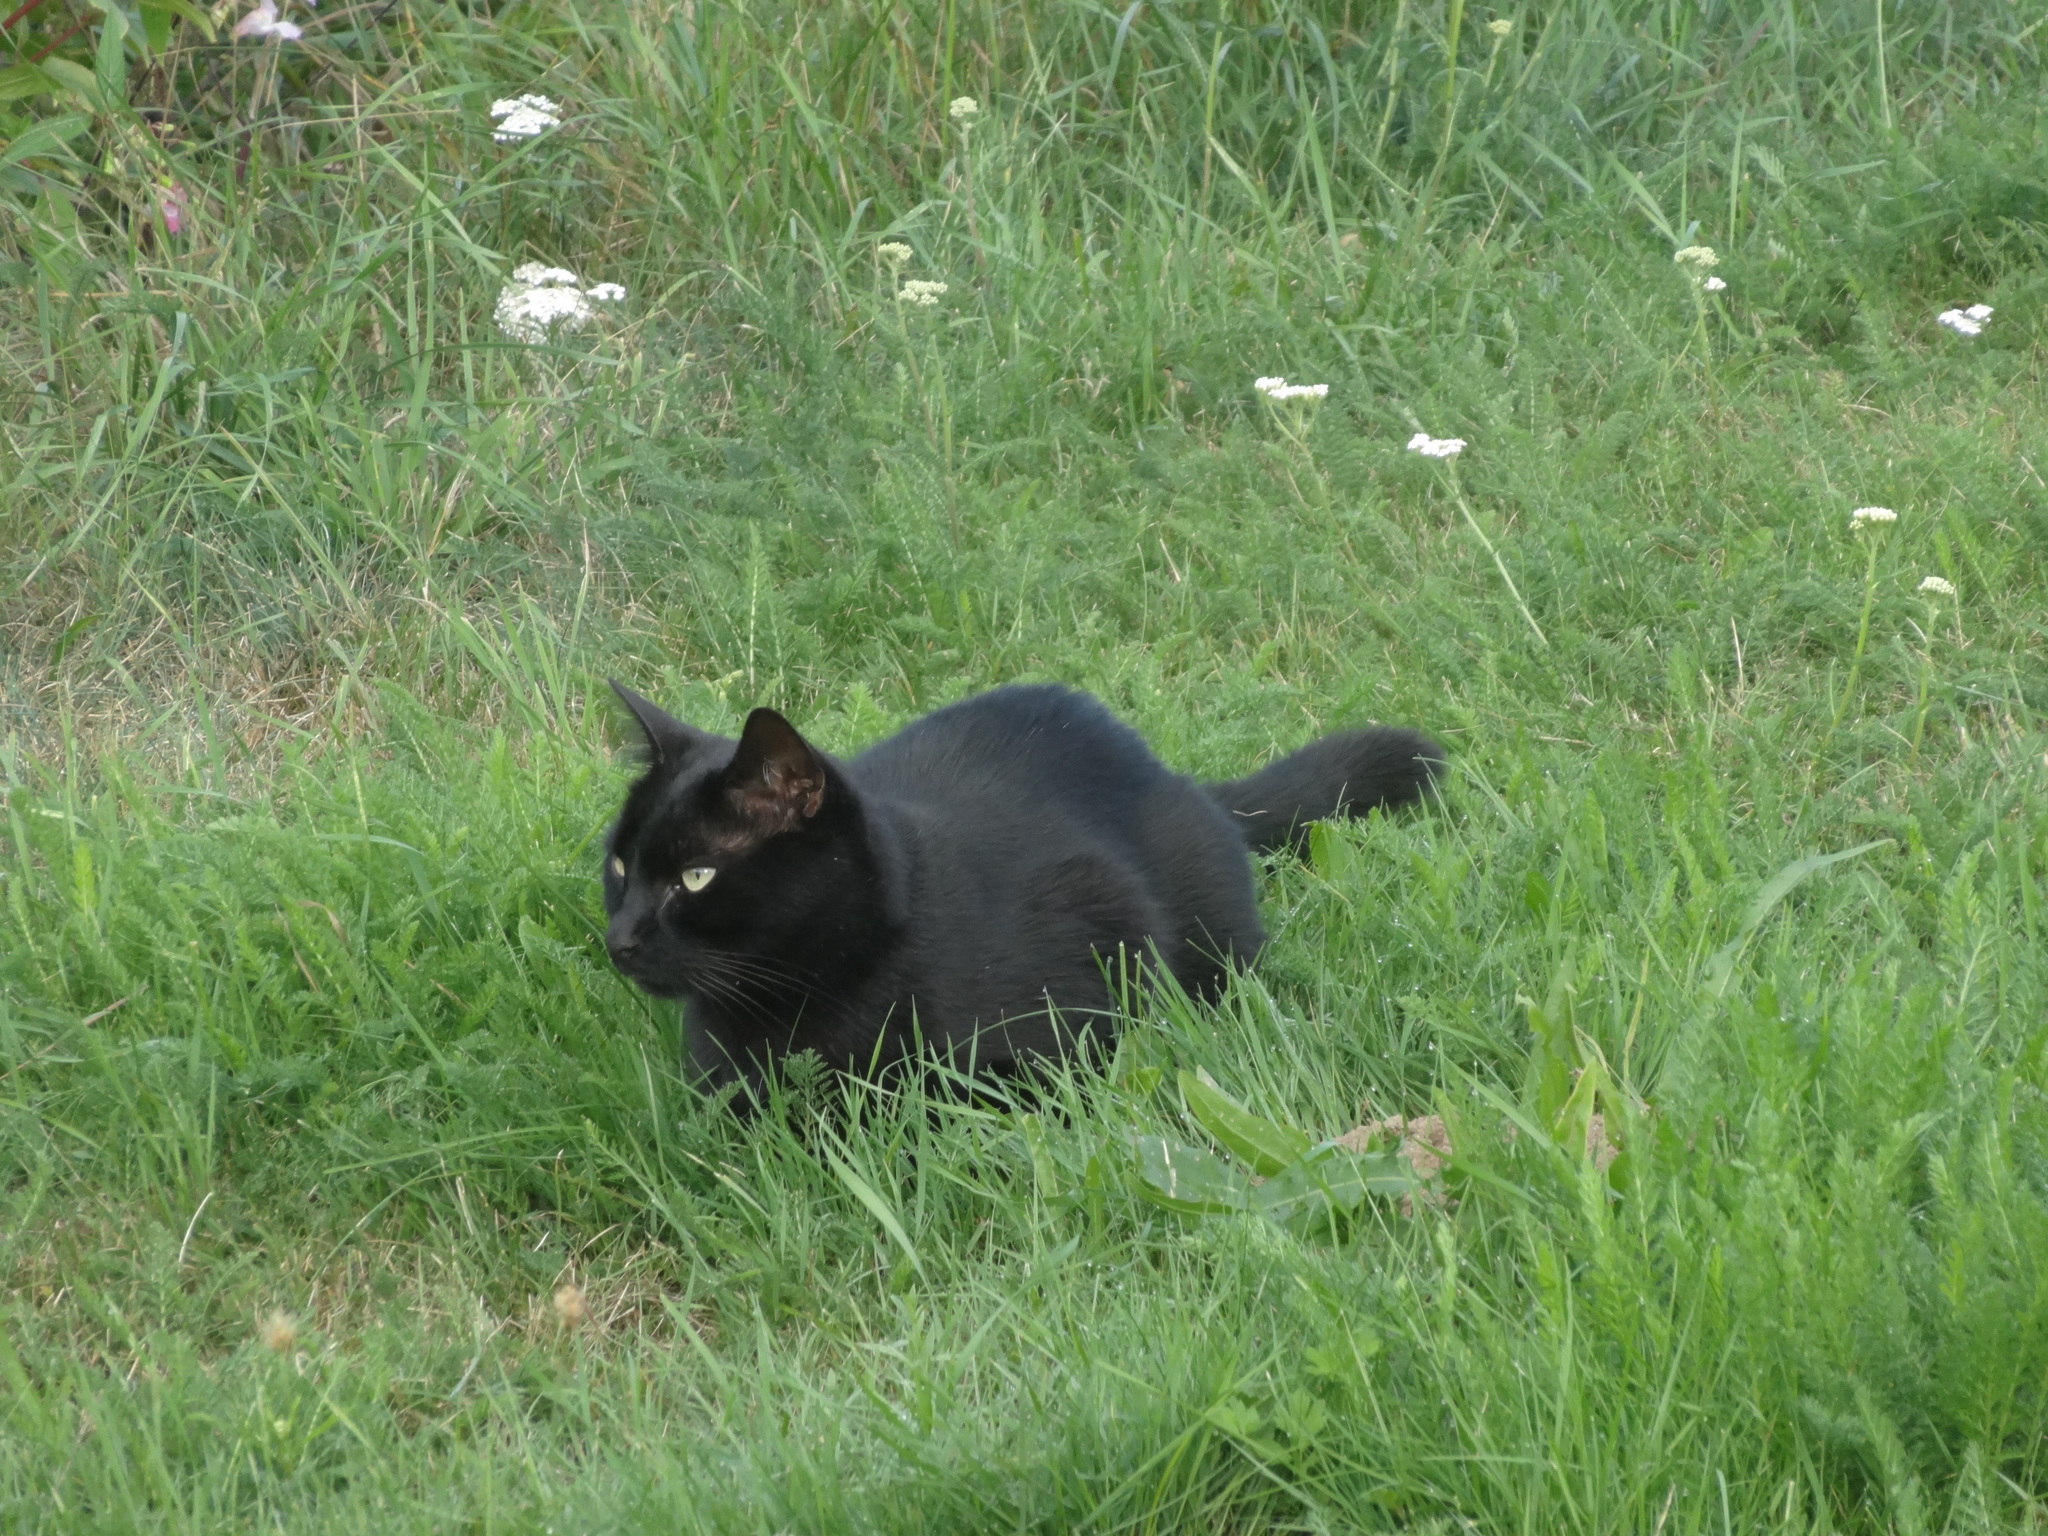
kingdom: Animalia
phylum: Chordata
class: Mammalia
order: Carnivora
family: Felidae
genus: Felis
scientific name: Felis catus
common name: Domestic cat
